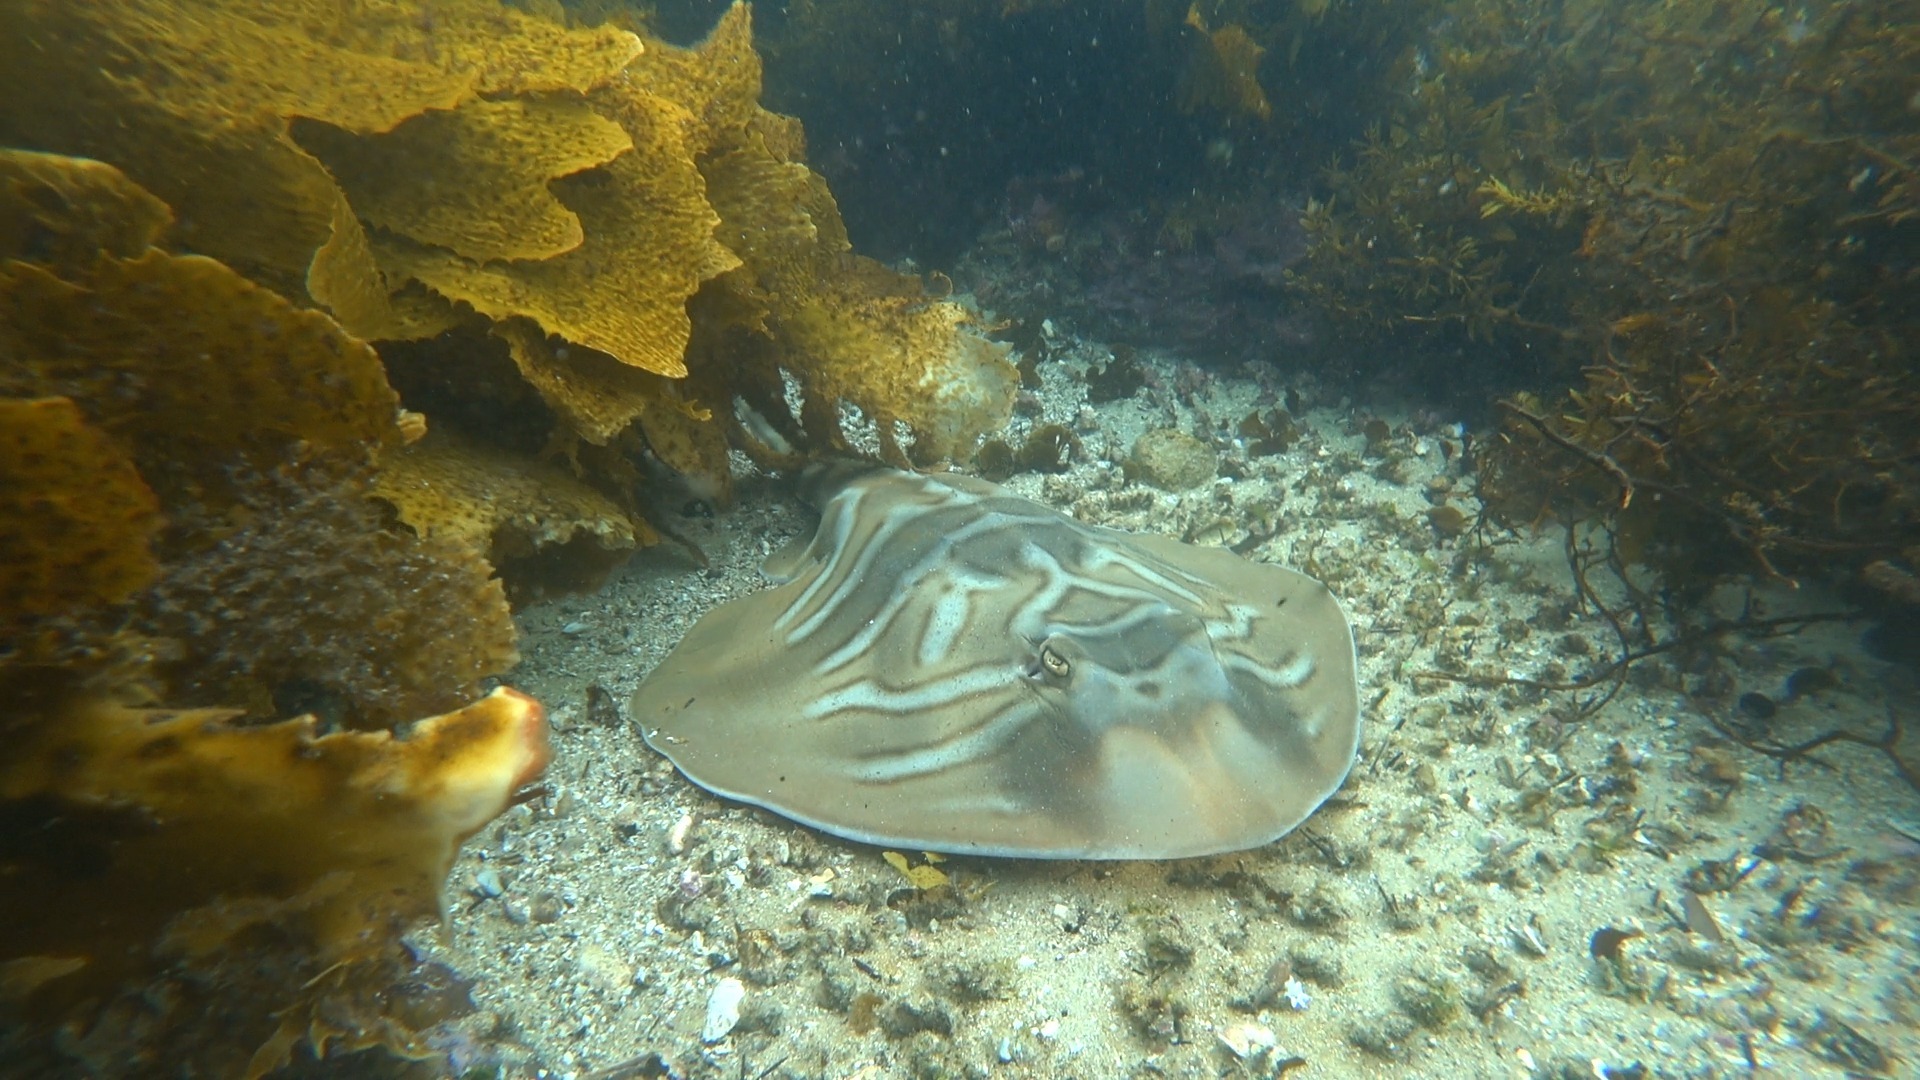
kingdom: Animalia
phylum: Chordata
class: Elasmobranchii
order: Rhinopristiformes
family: Rhinobatidae
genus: Trygonorrhina
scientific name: Trygonorrhina fasciata
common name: Southern fiddler
